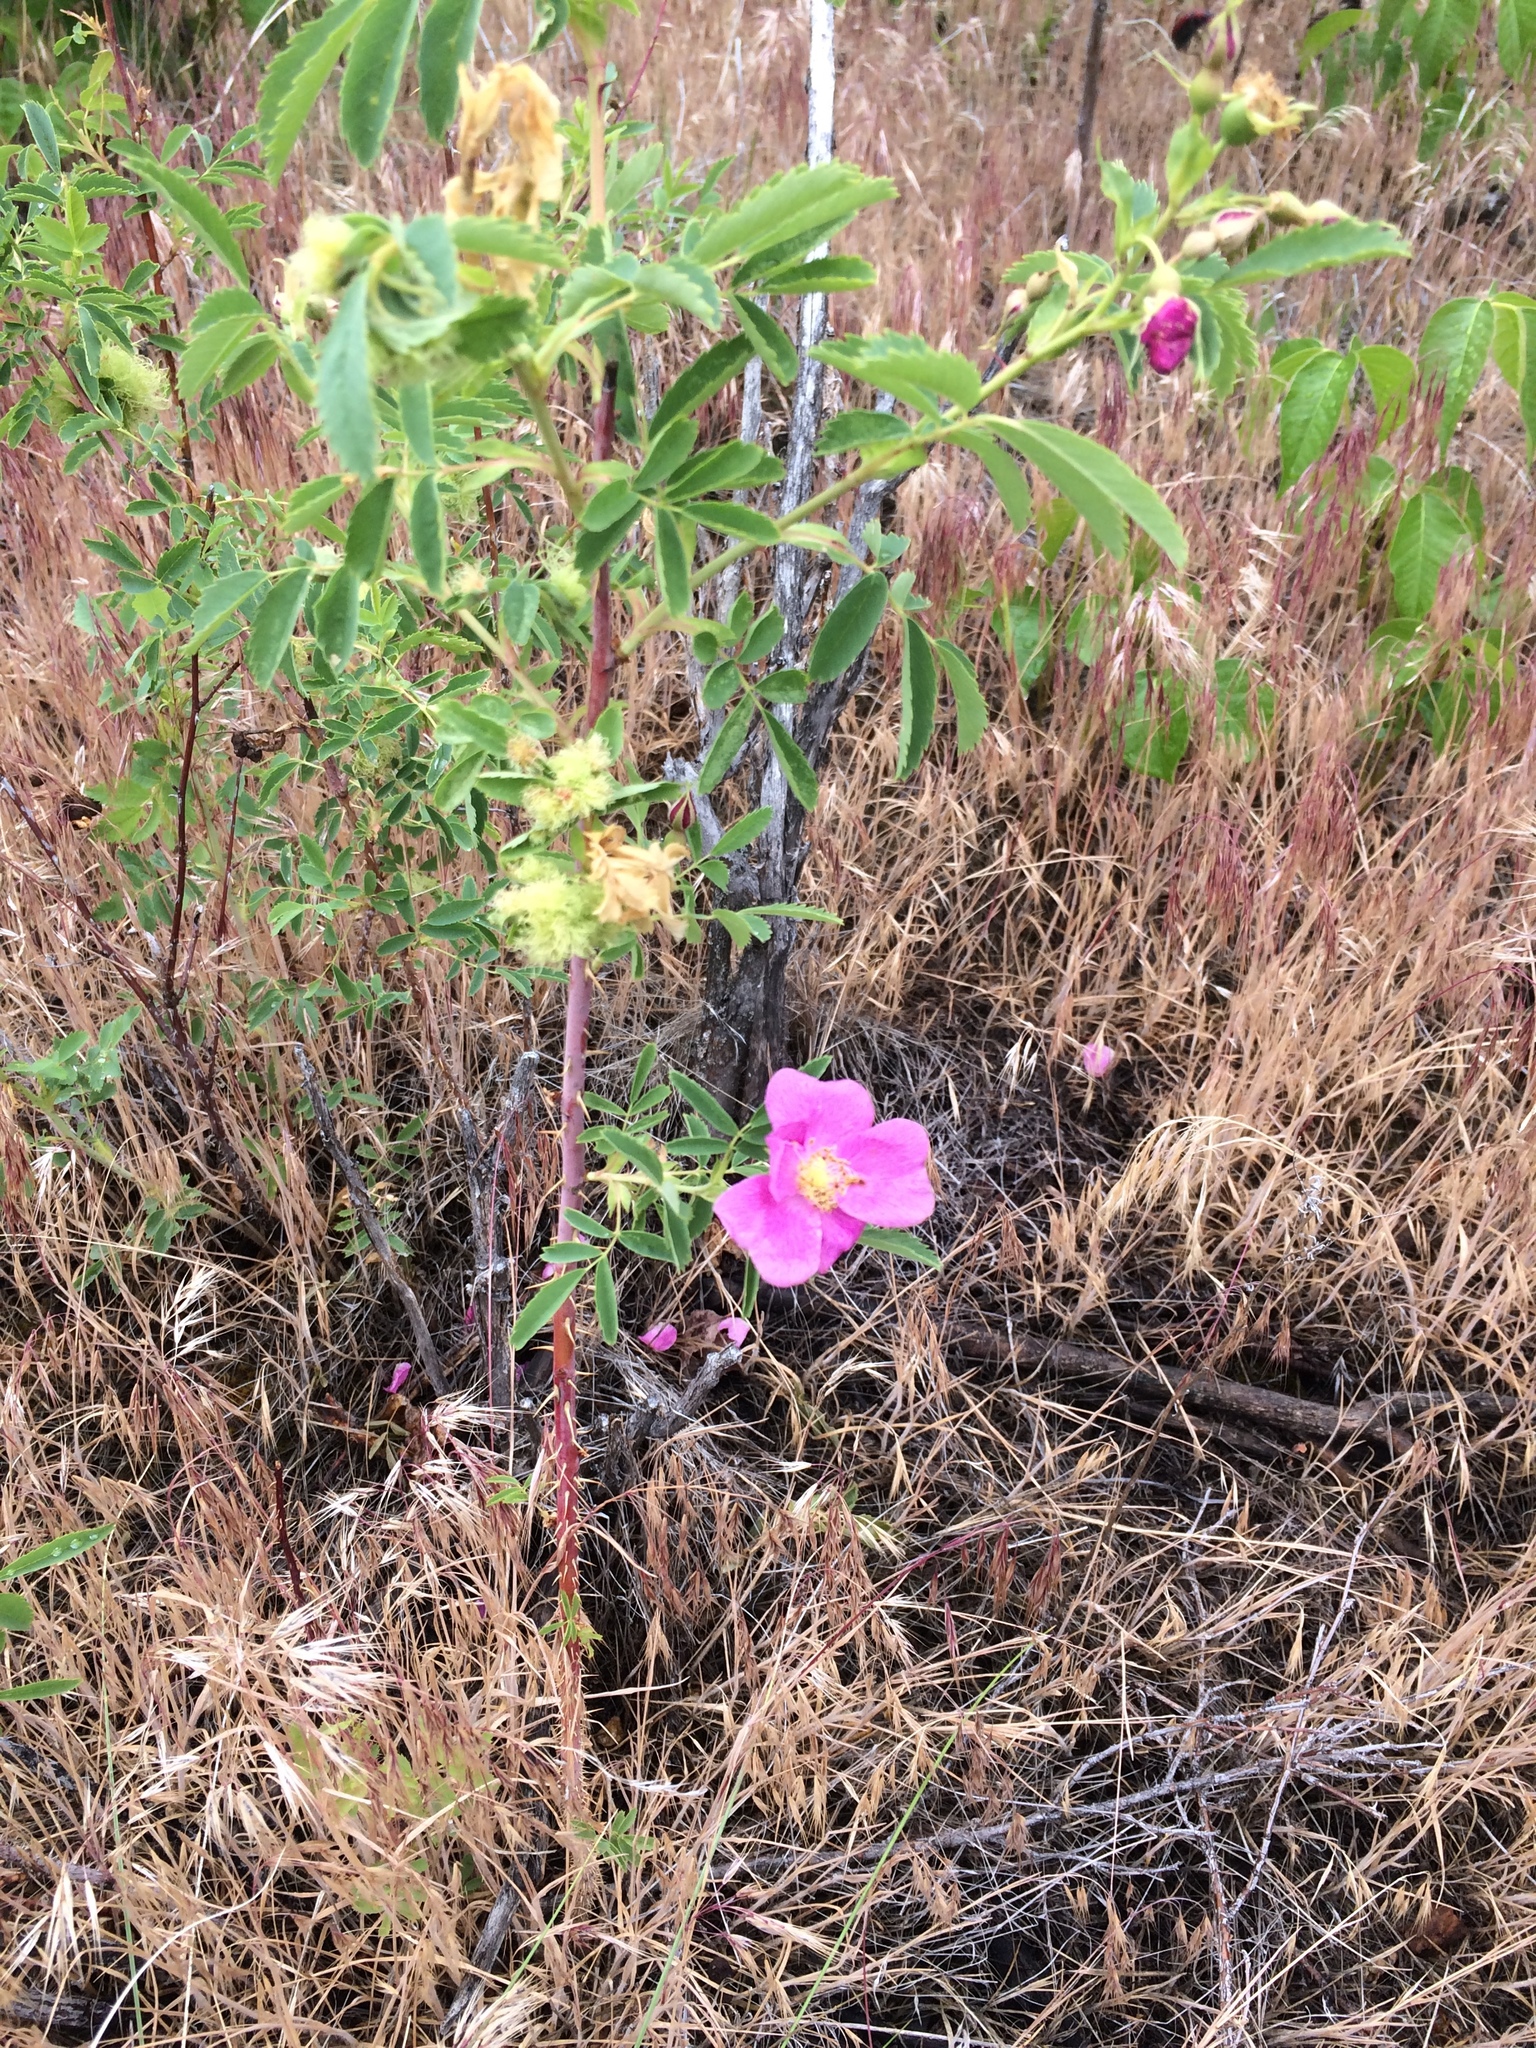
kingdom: Plantae
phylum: Tracheophyta
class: Magnoliopsida
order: Rosales
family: Rosaceae
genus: Rosa
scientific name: Rosa woodsii
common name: Woods's rose
